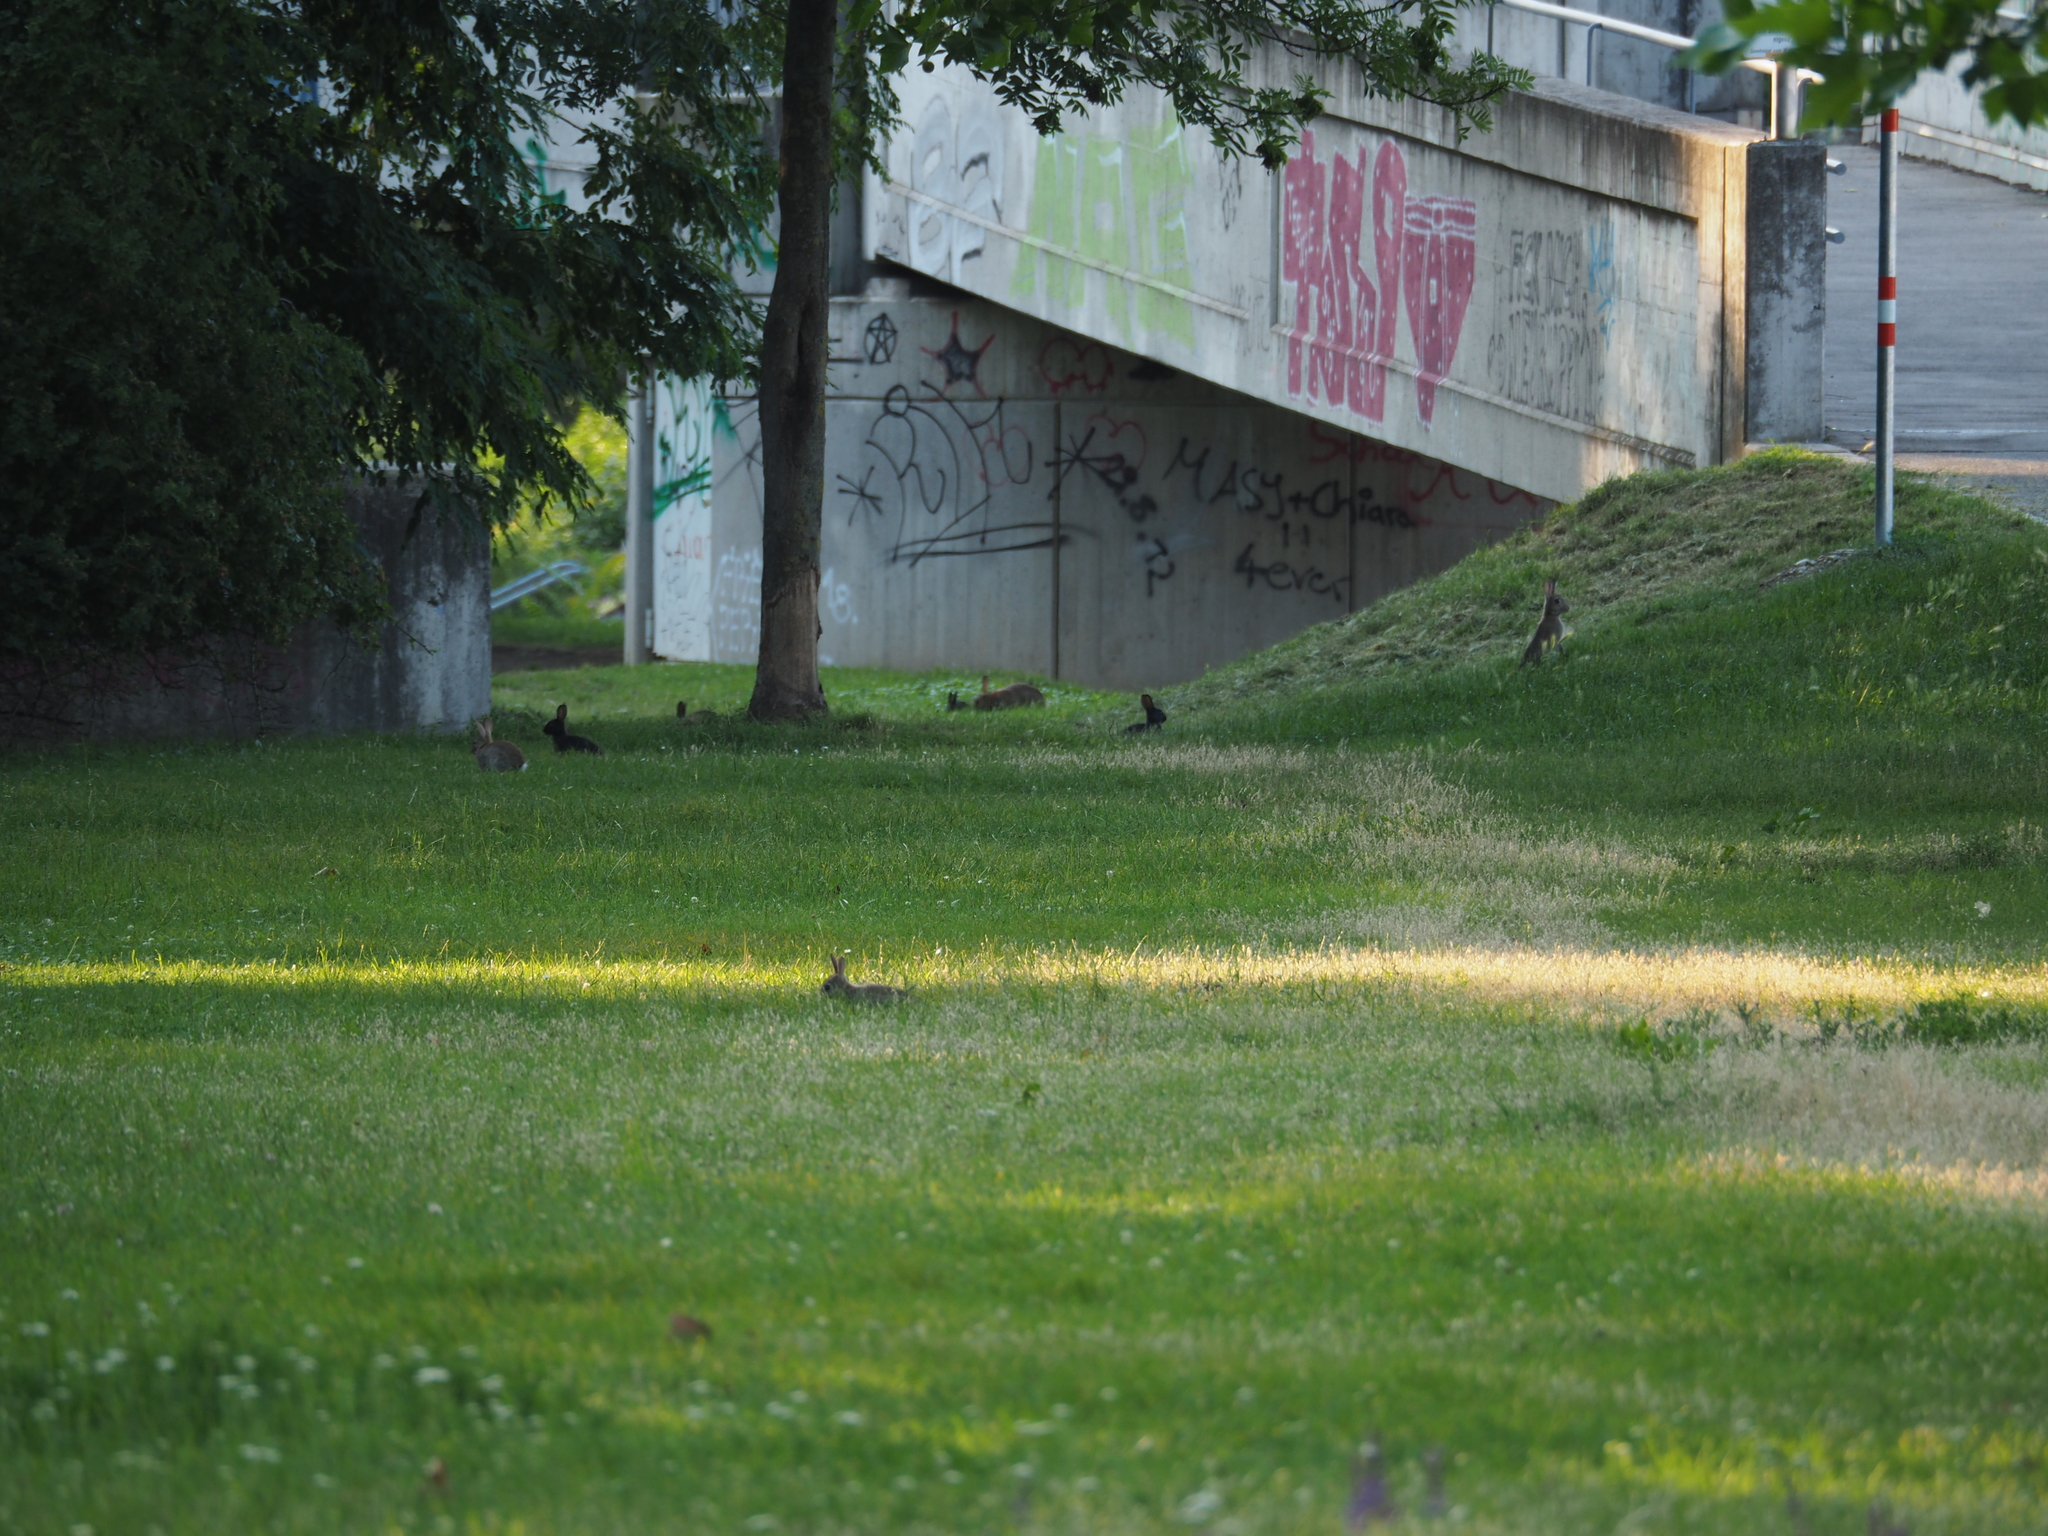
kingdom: Animalia
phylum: Chordata
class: Mammalia
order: Lagomorpha
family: Leporidae
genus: Oryctolagus
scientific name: Oryctolagus cuniculus
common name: European rabbit
